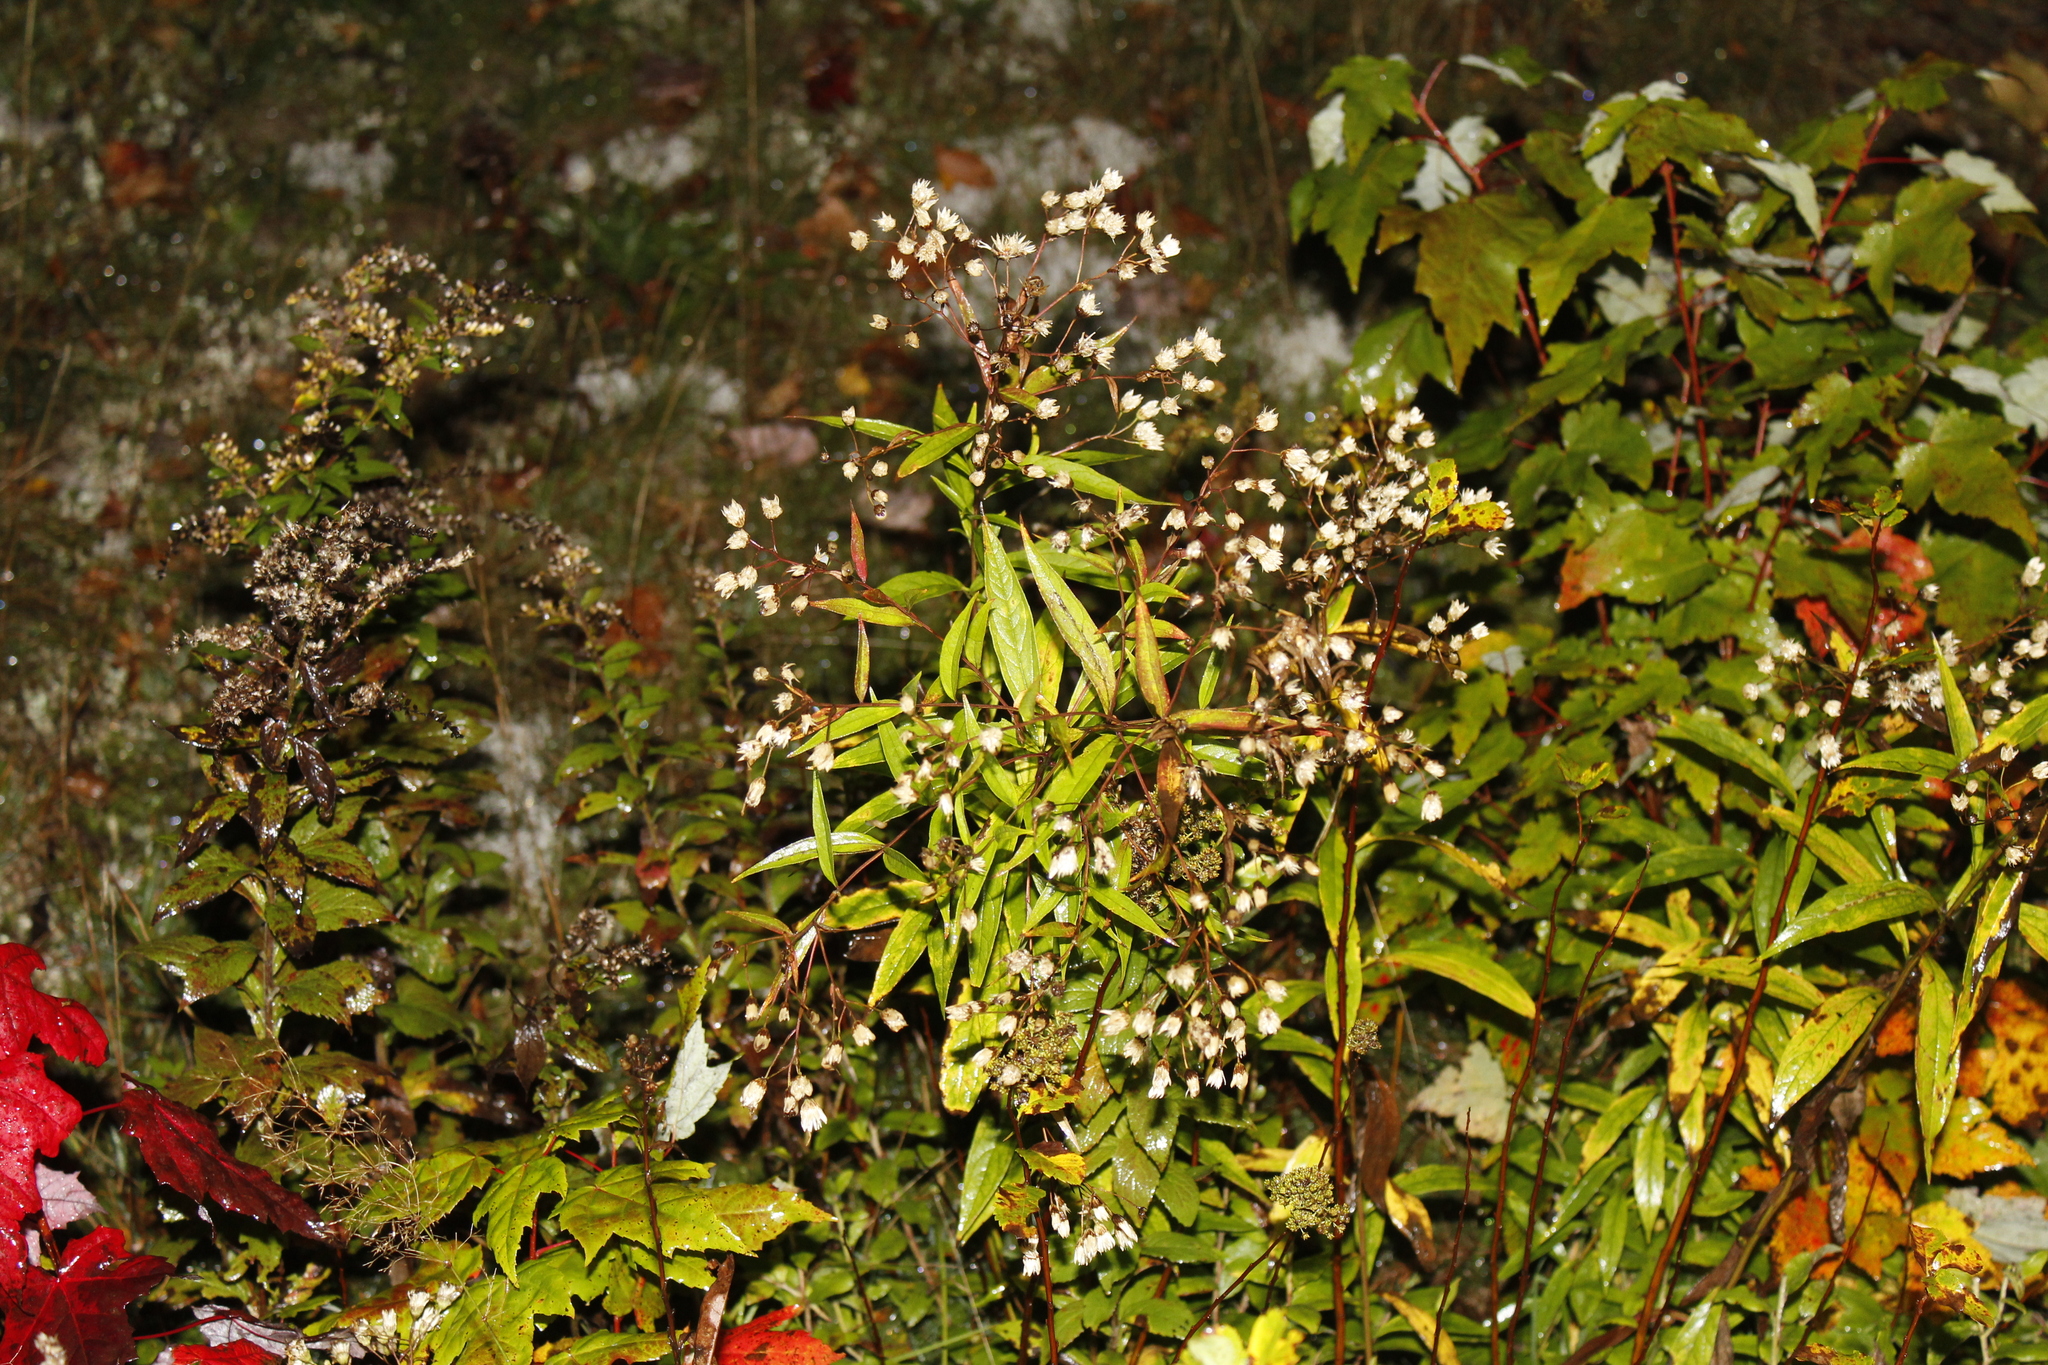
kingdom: Plantae
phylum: Tracheophyta
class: Magnoliopsida
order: Asterales
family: Asteraceae
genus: Doellingeria
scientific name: Doellingeria umbellata
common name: Flat-top white aster
